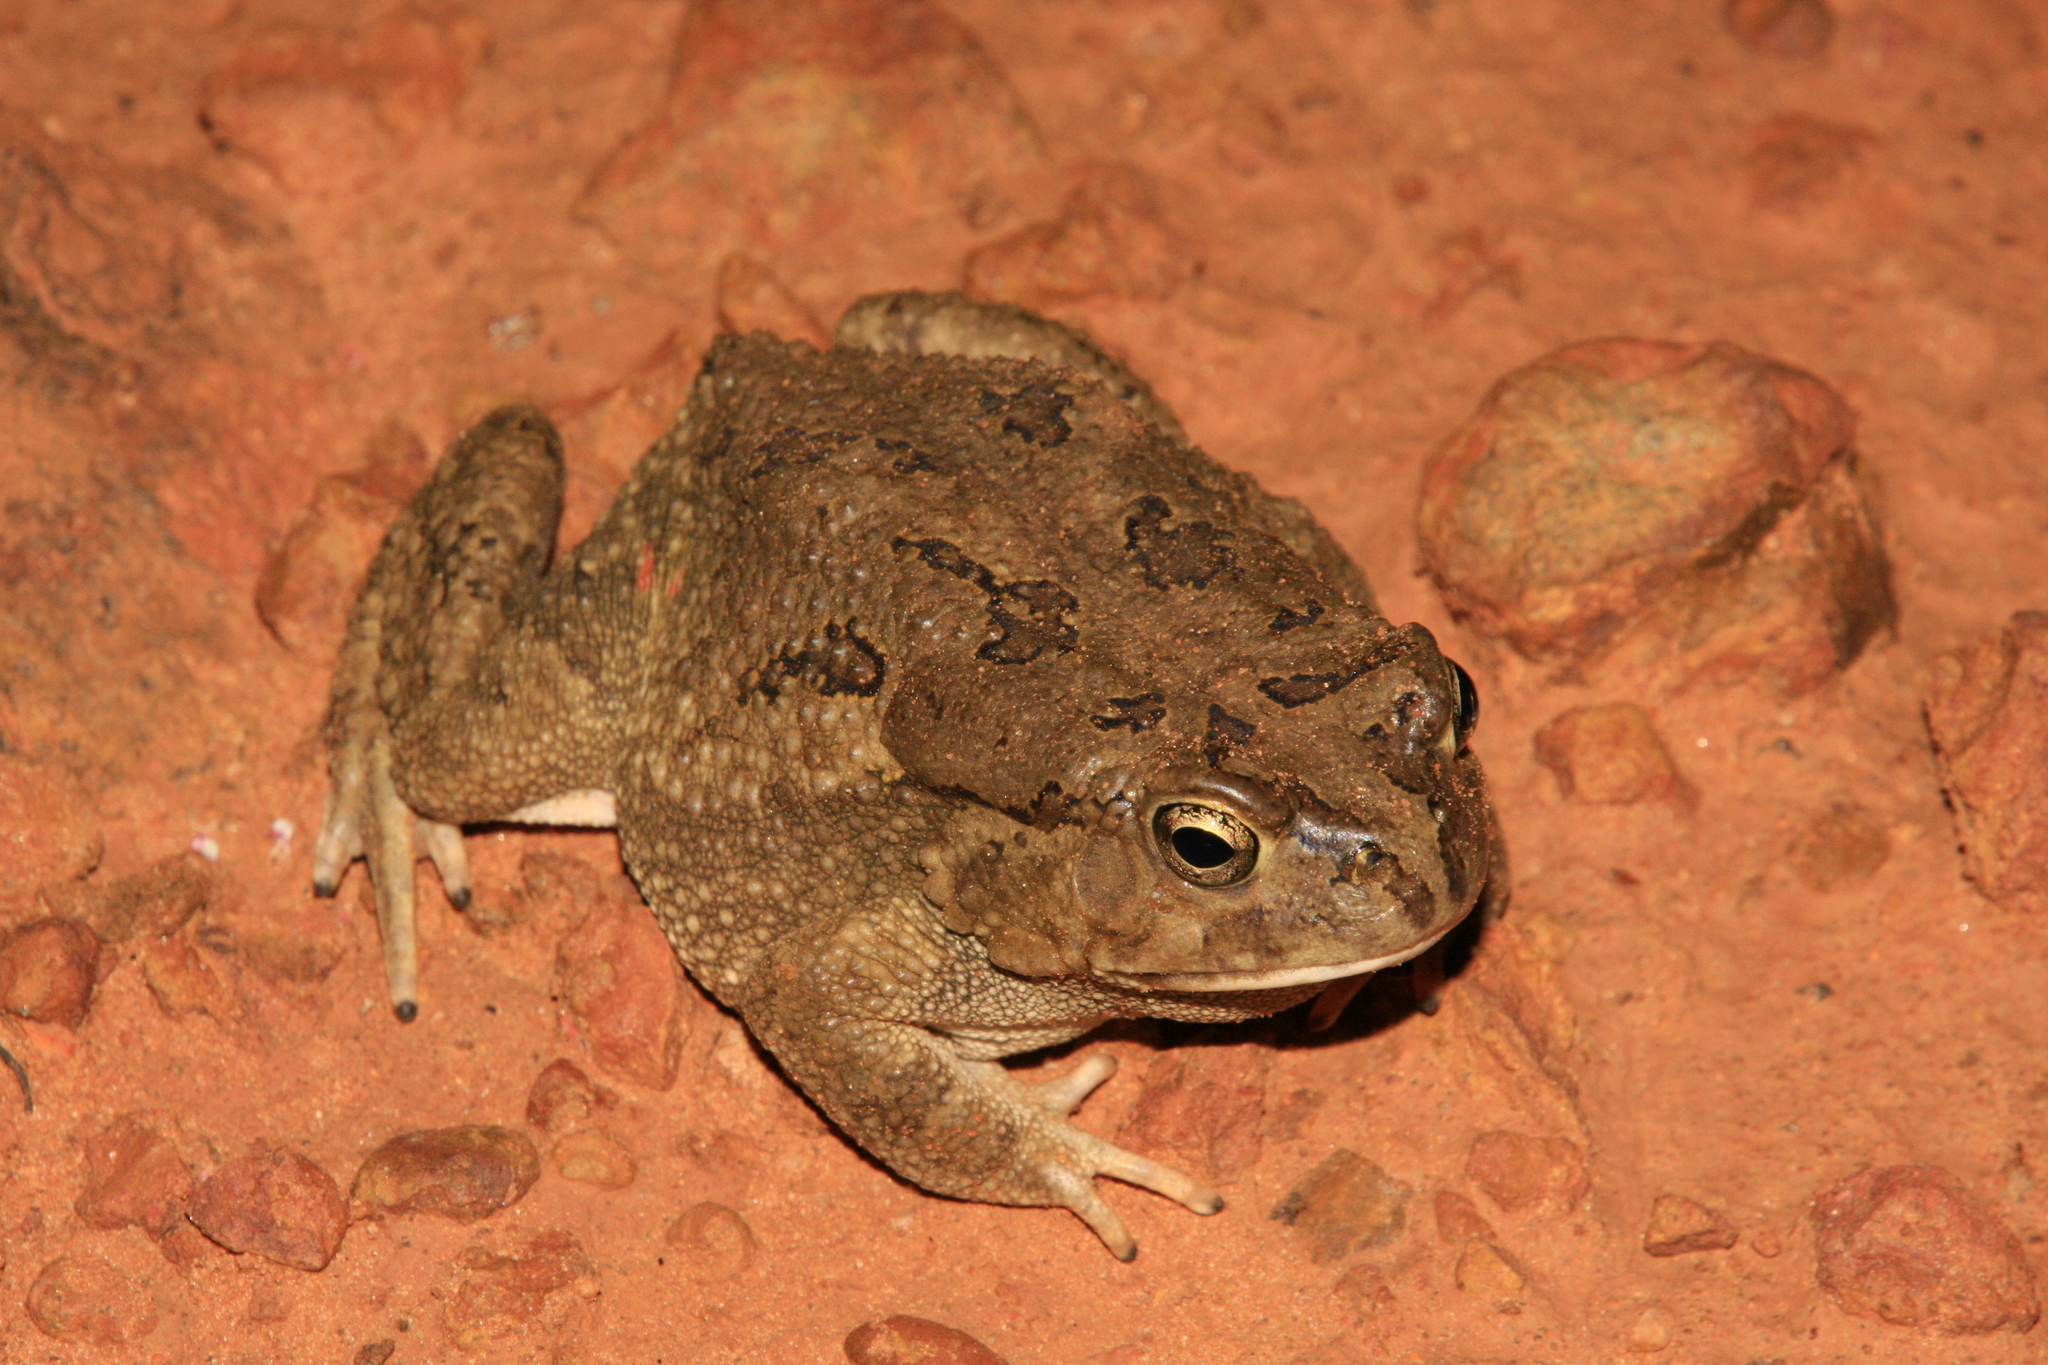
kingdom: Animalia
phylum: Chordata
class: Amphibia
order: Anura
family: Bufonidae
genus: Sclerophrys
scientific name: Sclerophrys regularis
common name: African common toad
